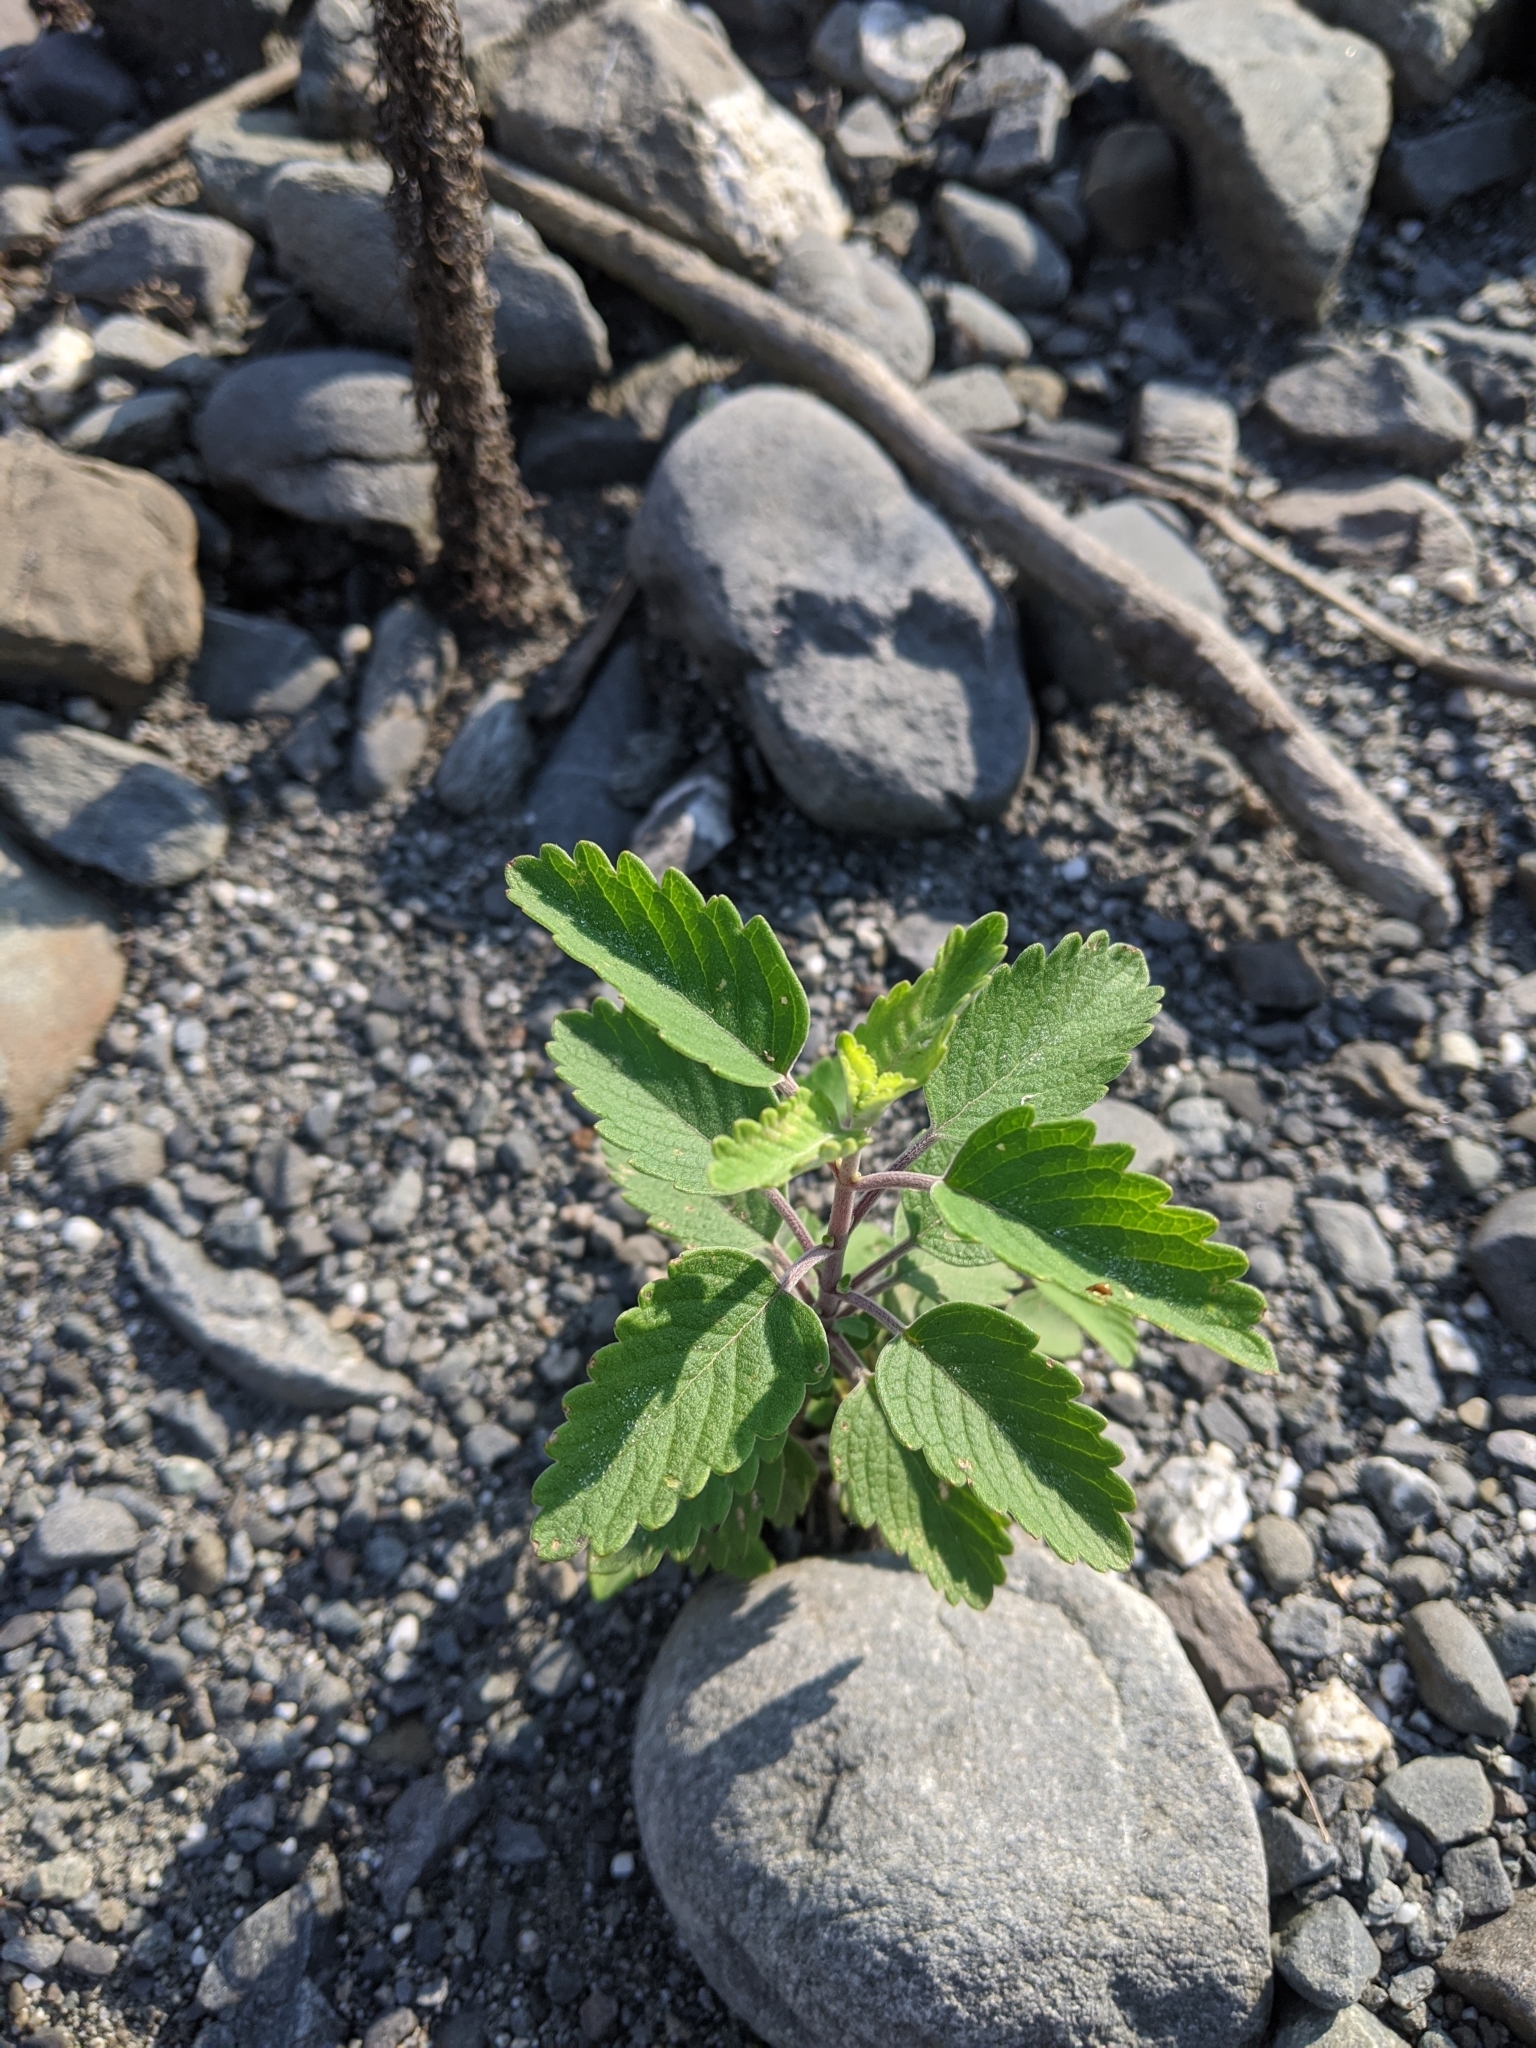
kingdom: Plantae
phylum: Tracheophyta
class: Magnoliopsida
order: Lamiales
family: Lamiaceae
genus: Caryopteris
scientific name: Caryopteris incana
